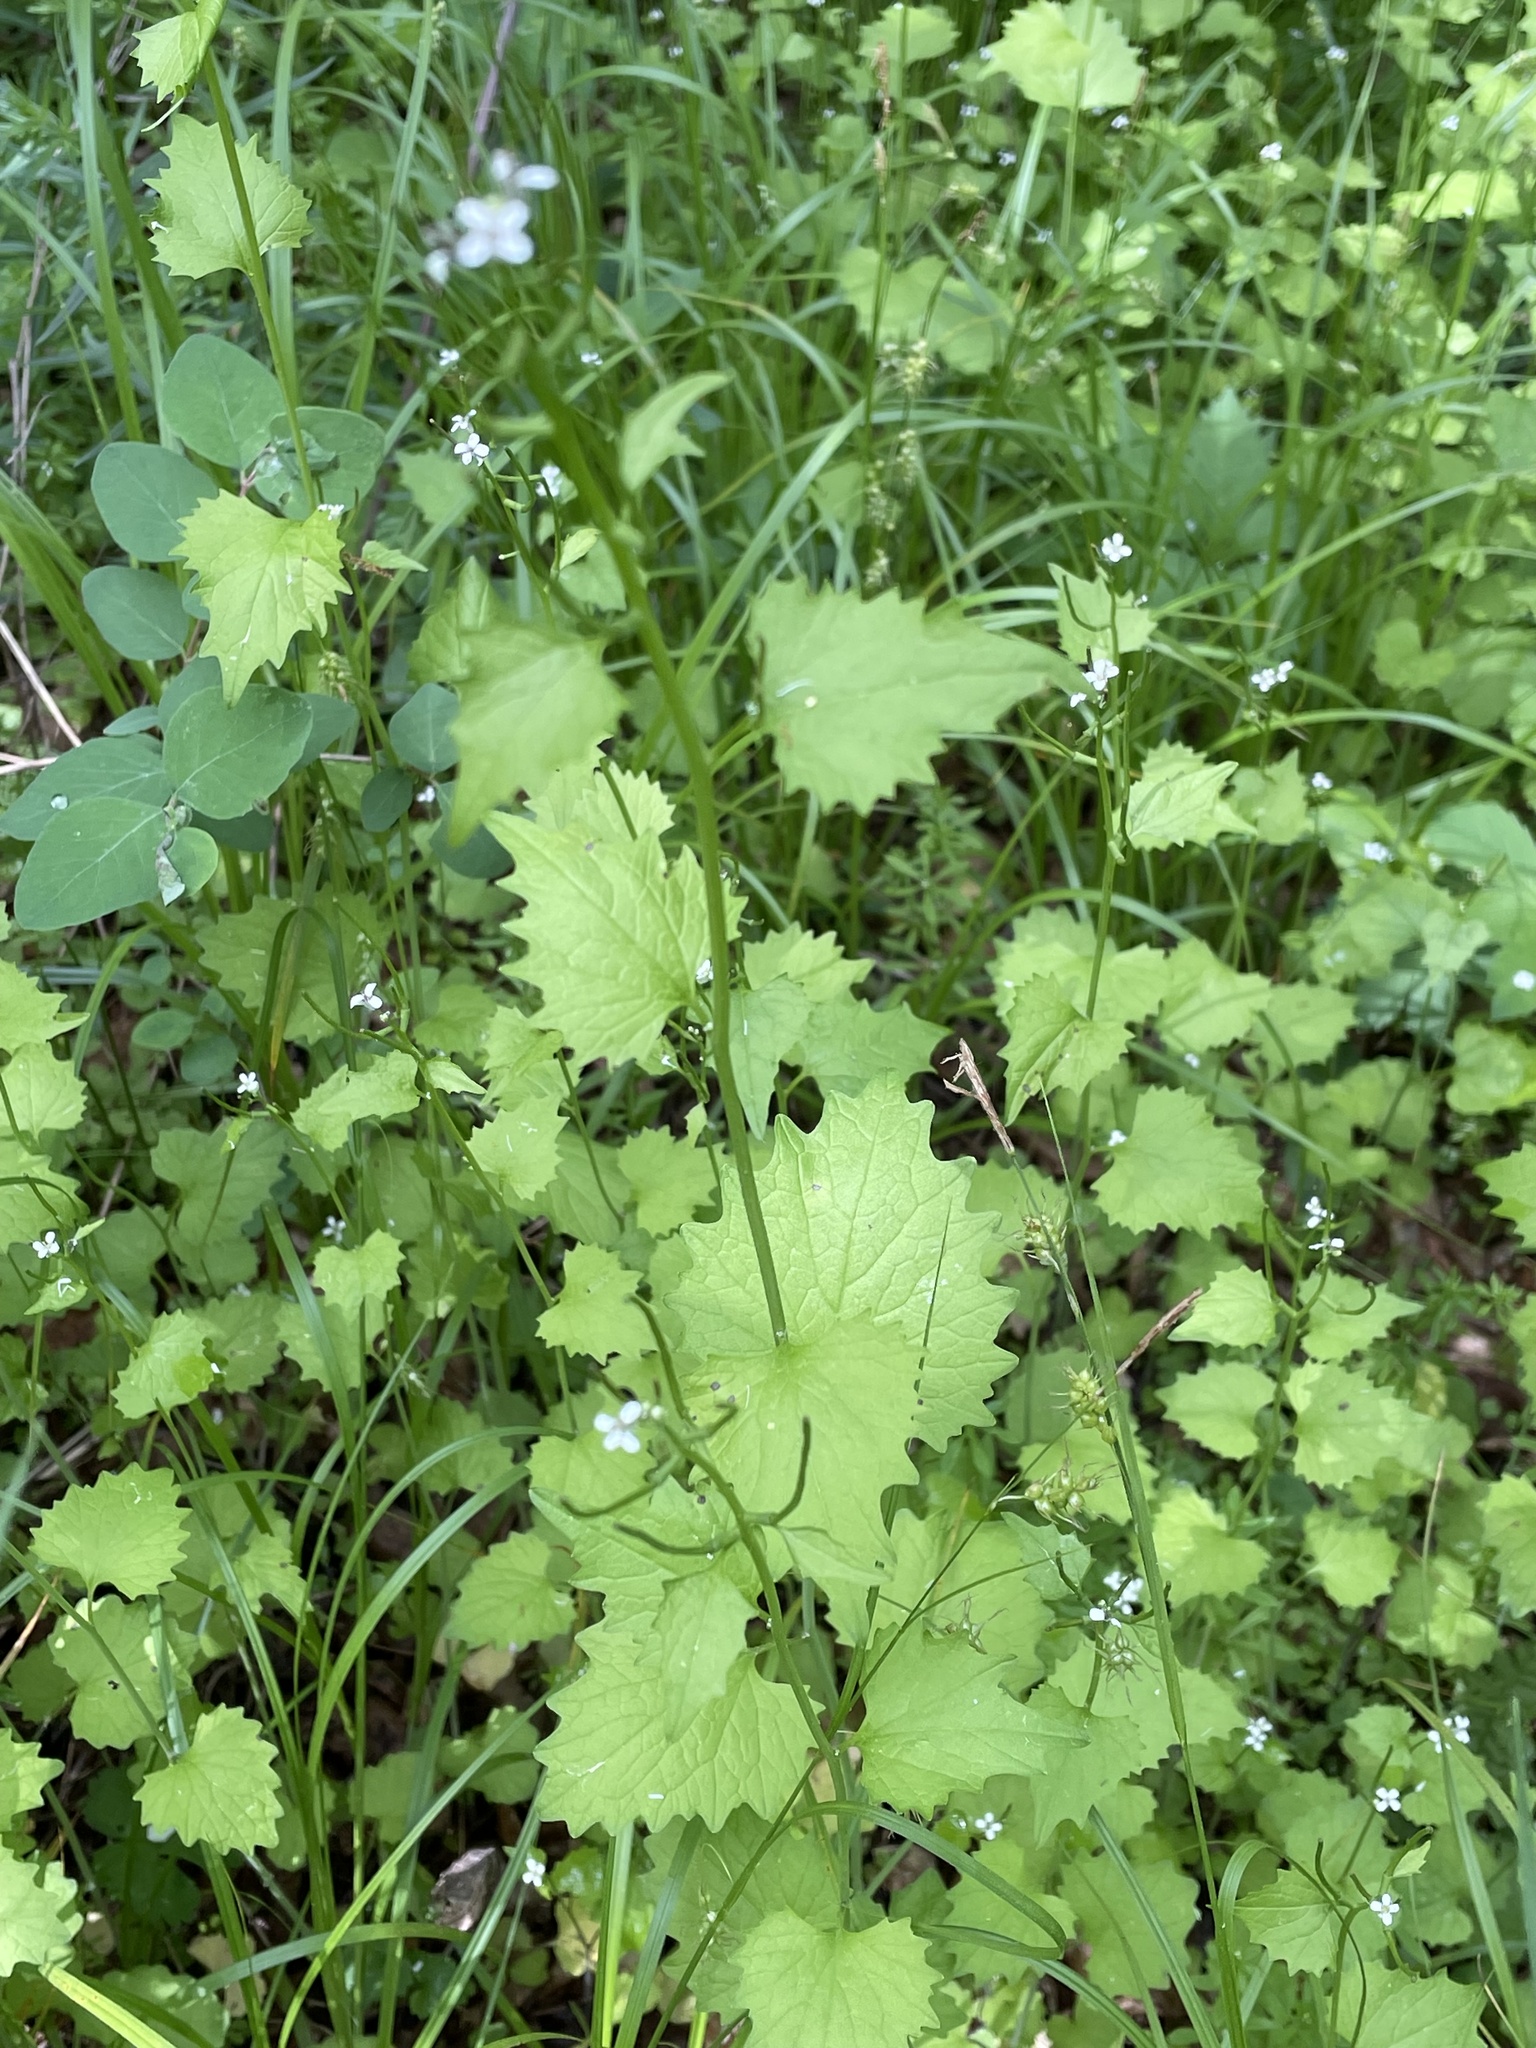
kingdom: Plantae
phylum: Tracheophyta
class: Magnoliopsida
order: Brassicales
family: Brassicaceae
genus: Alliaria
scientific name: Alliaria petiolata
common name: Garlic mustard
